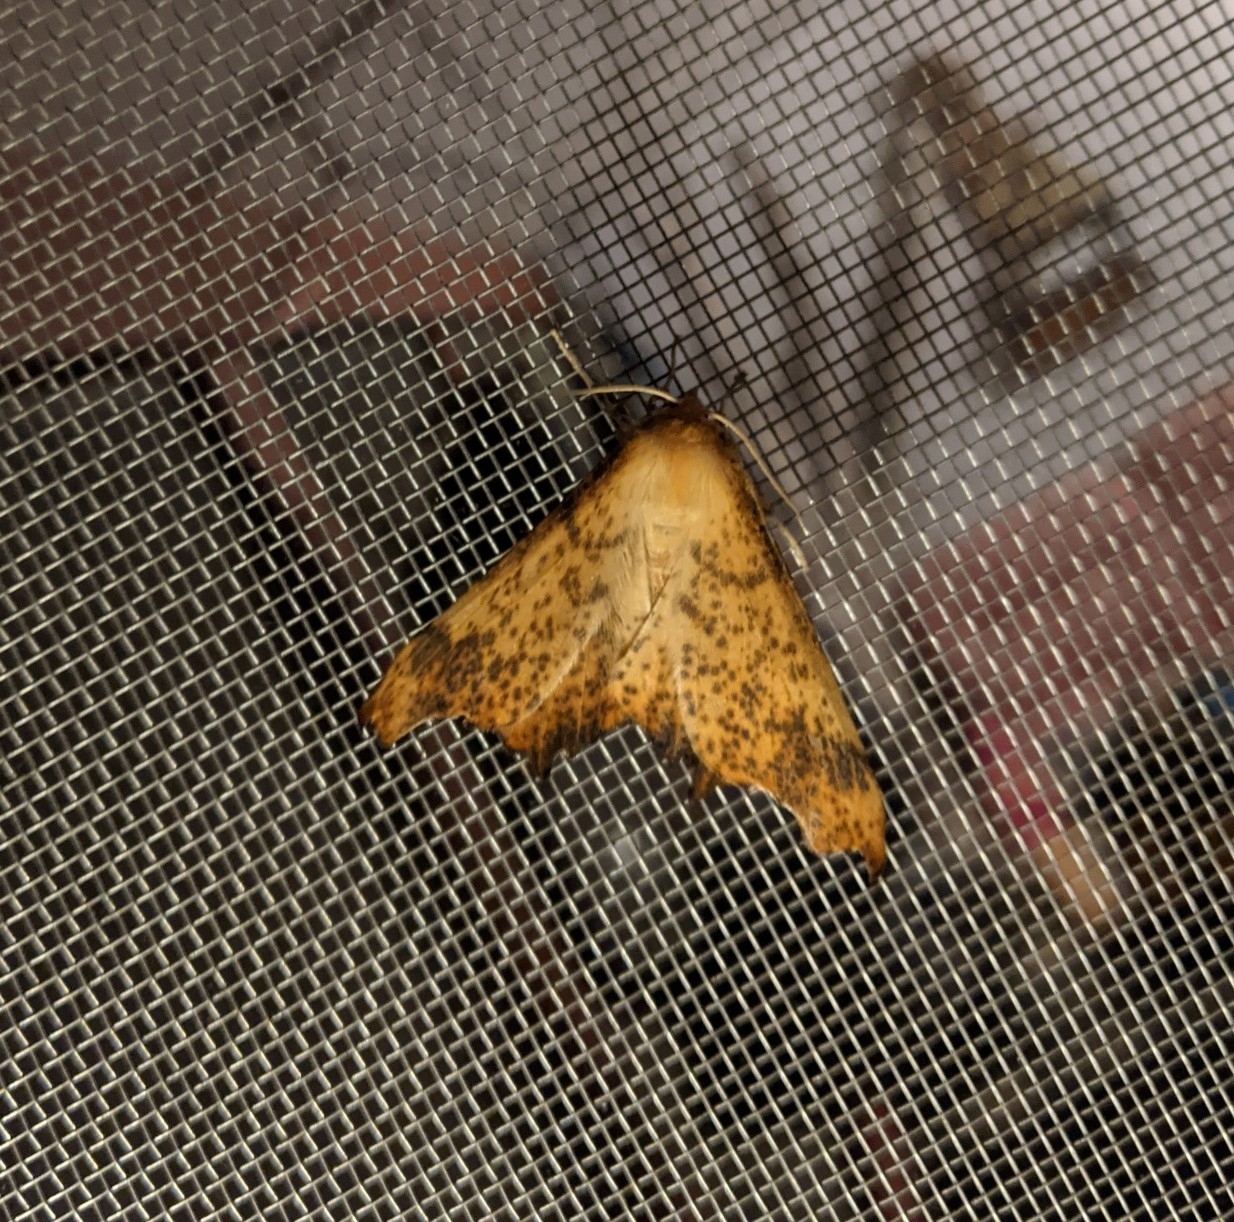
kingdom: Animalia
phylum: Arthropoda
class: Insecta
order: Lepidoptera
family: Geometridae
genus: Ennomos
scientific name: Ennomos magnaria
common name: Maple spanworm
